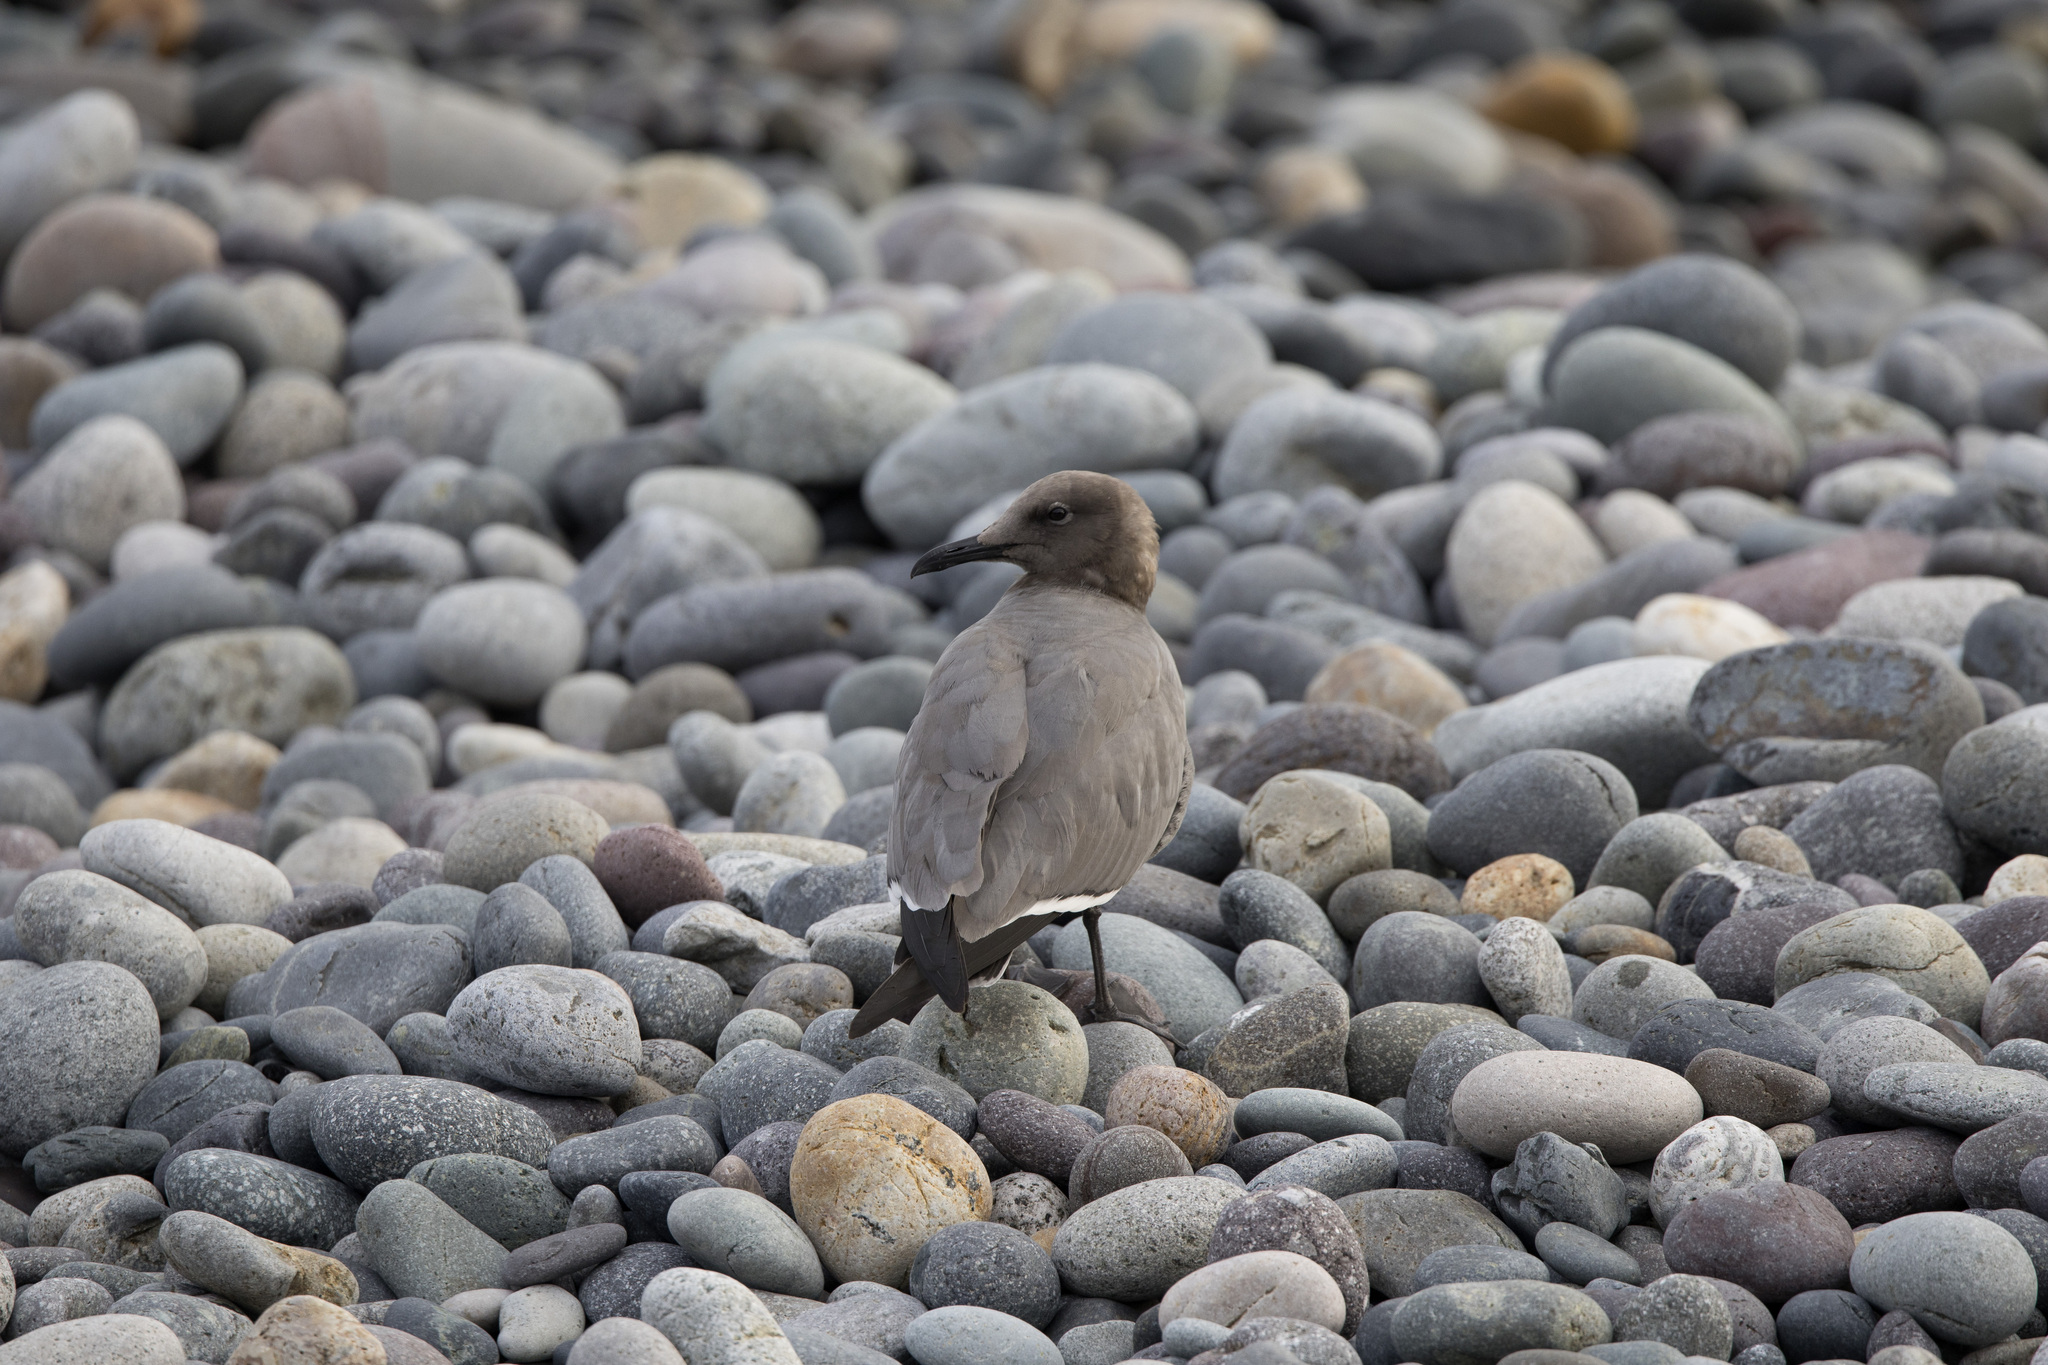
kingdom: Animalia
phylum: Chordata
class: Aves
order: Charadriiformes
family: Laridae
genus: Leucophaeus
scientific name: Leucophaeus modestus
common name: Gray gull
